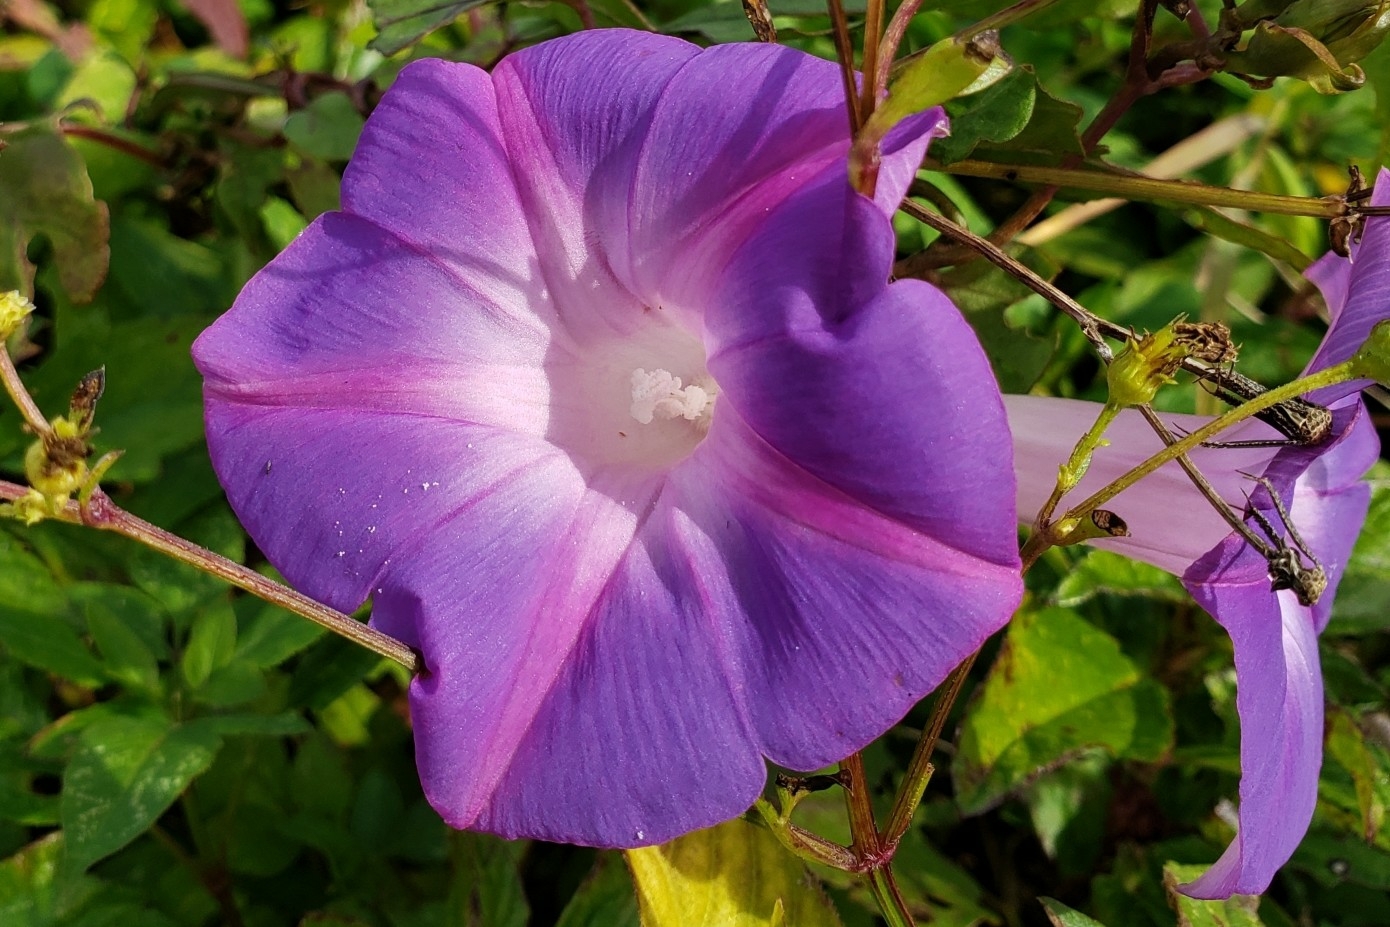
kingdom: Plantae
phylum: Tracheophyta
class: Magnoliopsida
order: Solanales
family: Convolvulaceae
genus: Ipomoea
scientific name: Ipomoea indica
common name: Blue dawnflower
